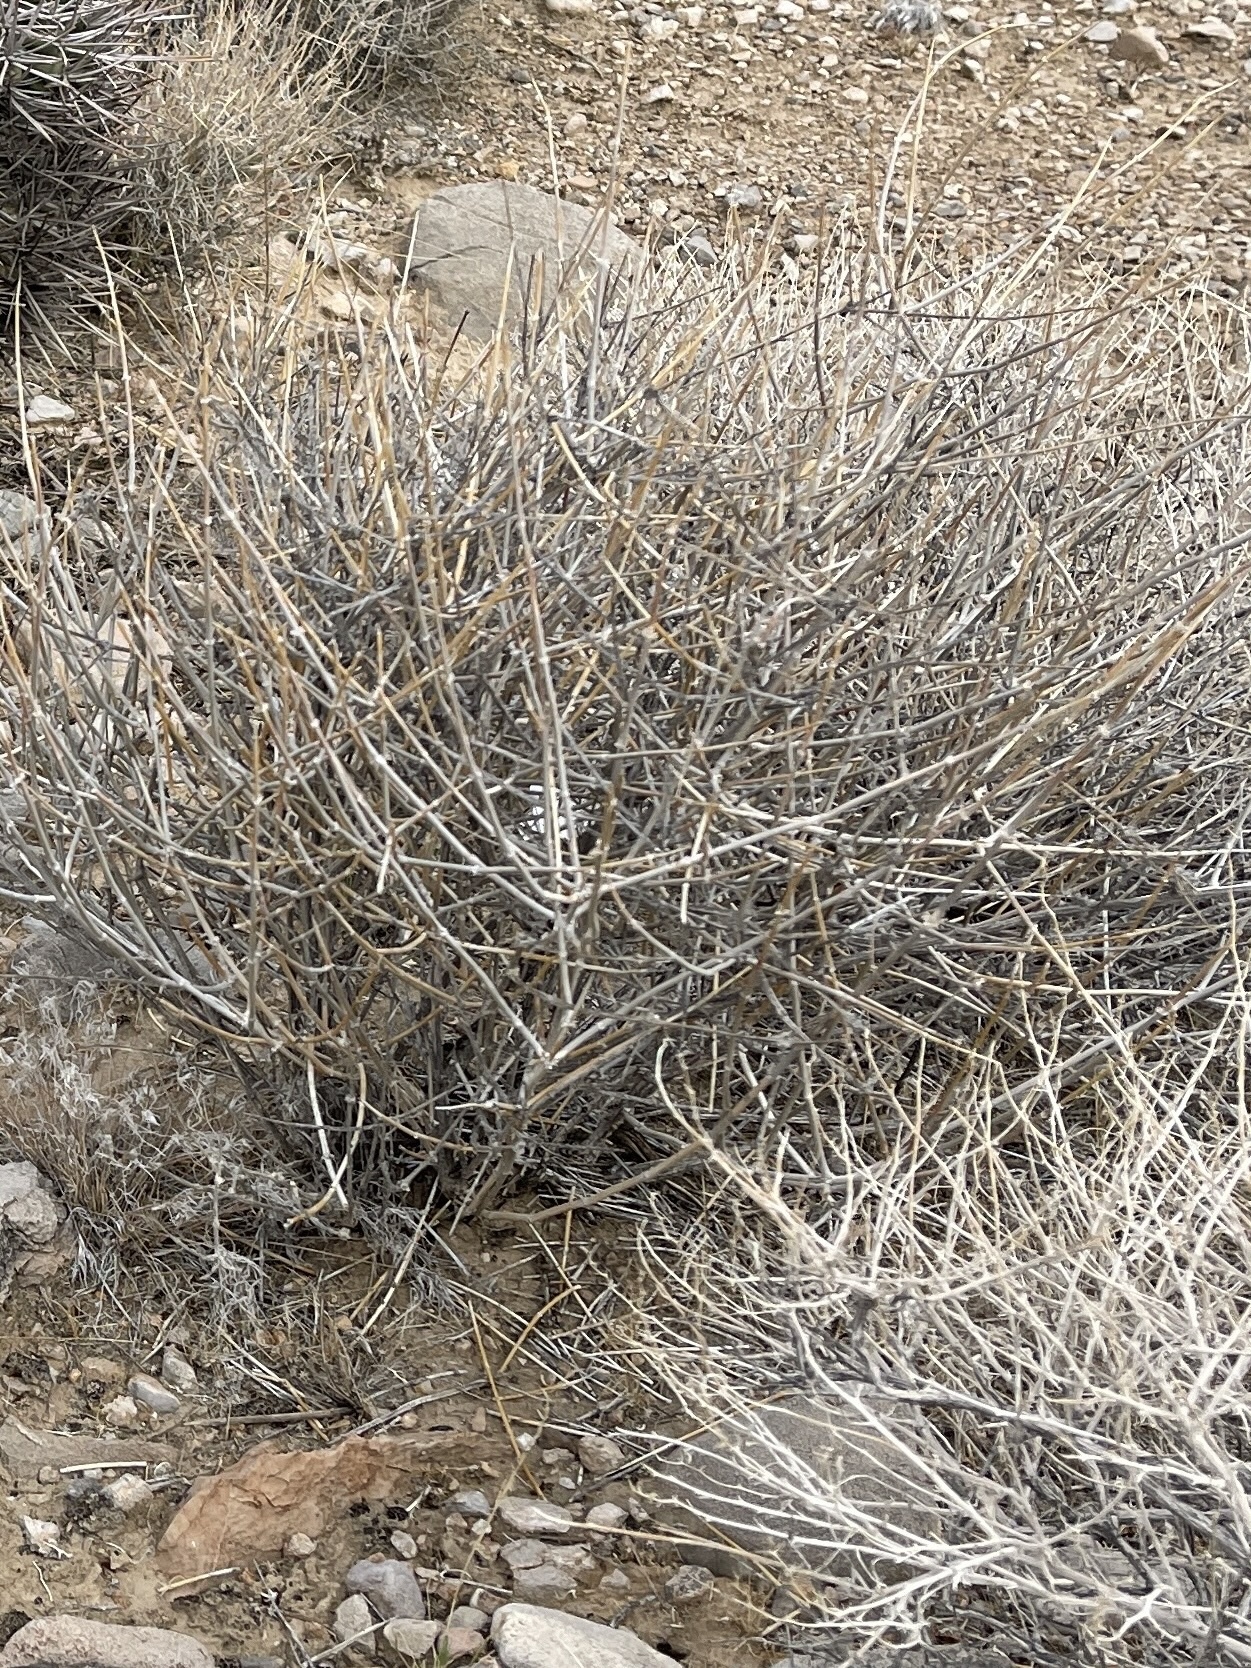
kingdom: Plantae
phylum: Tracheophyta
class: Gnetopsida
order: Ephedrales
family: Ephedraceae
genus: Ephedra
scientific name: Ephedra nevadensis
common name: Gray ephedra
